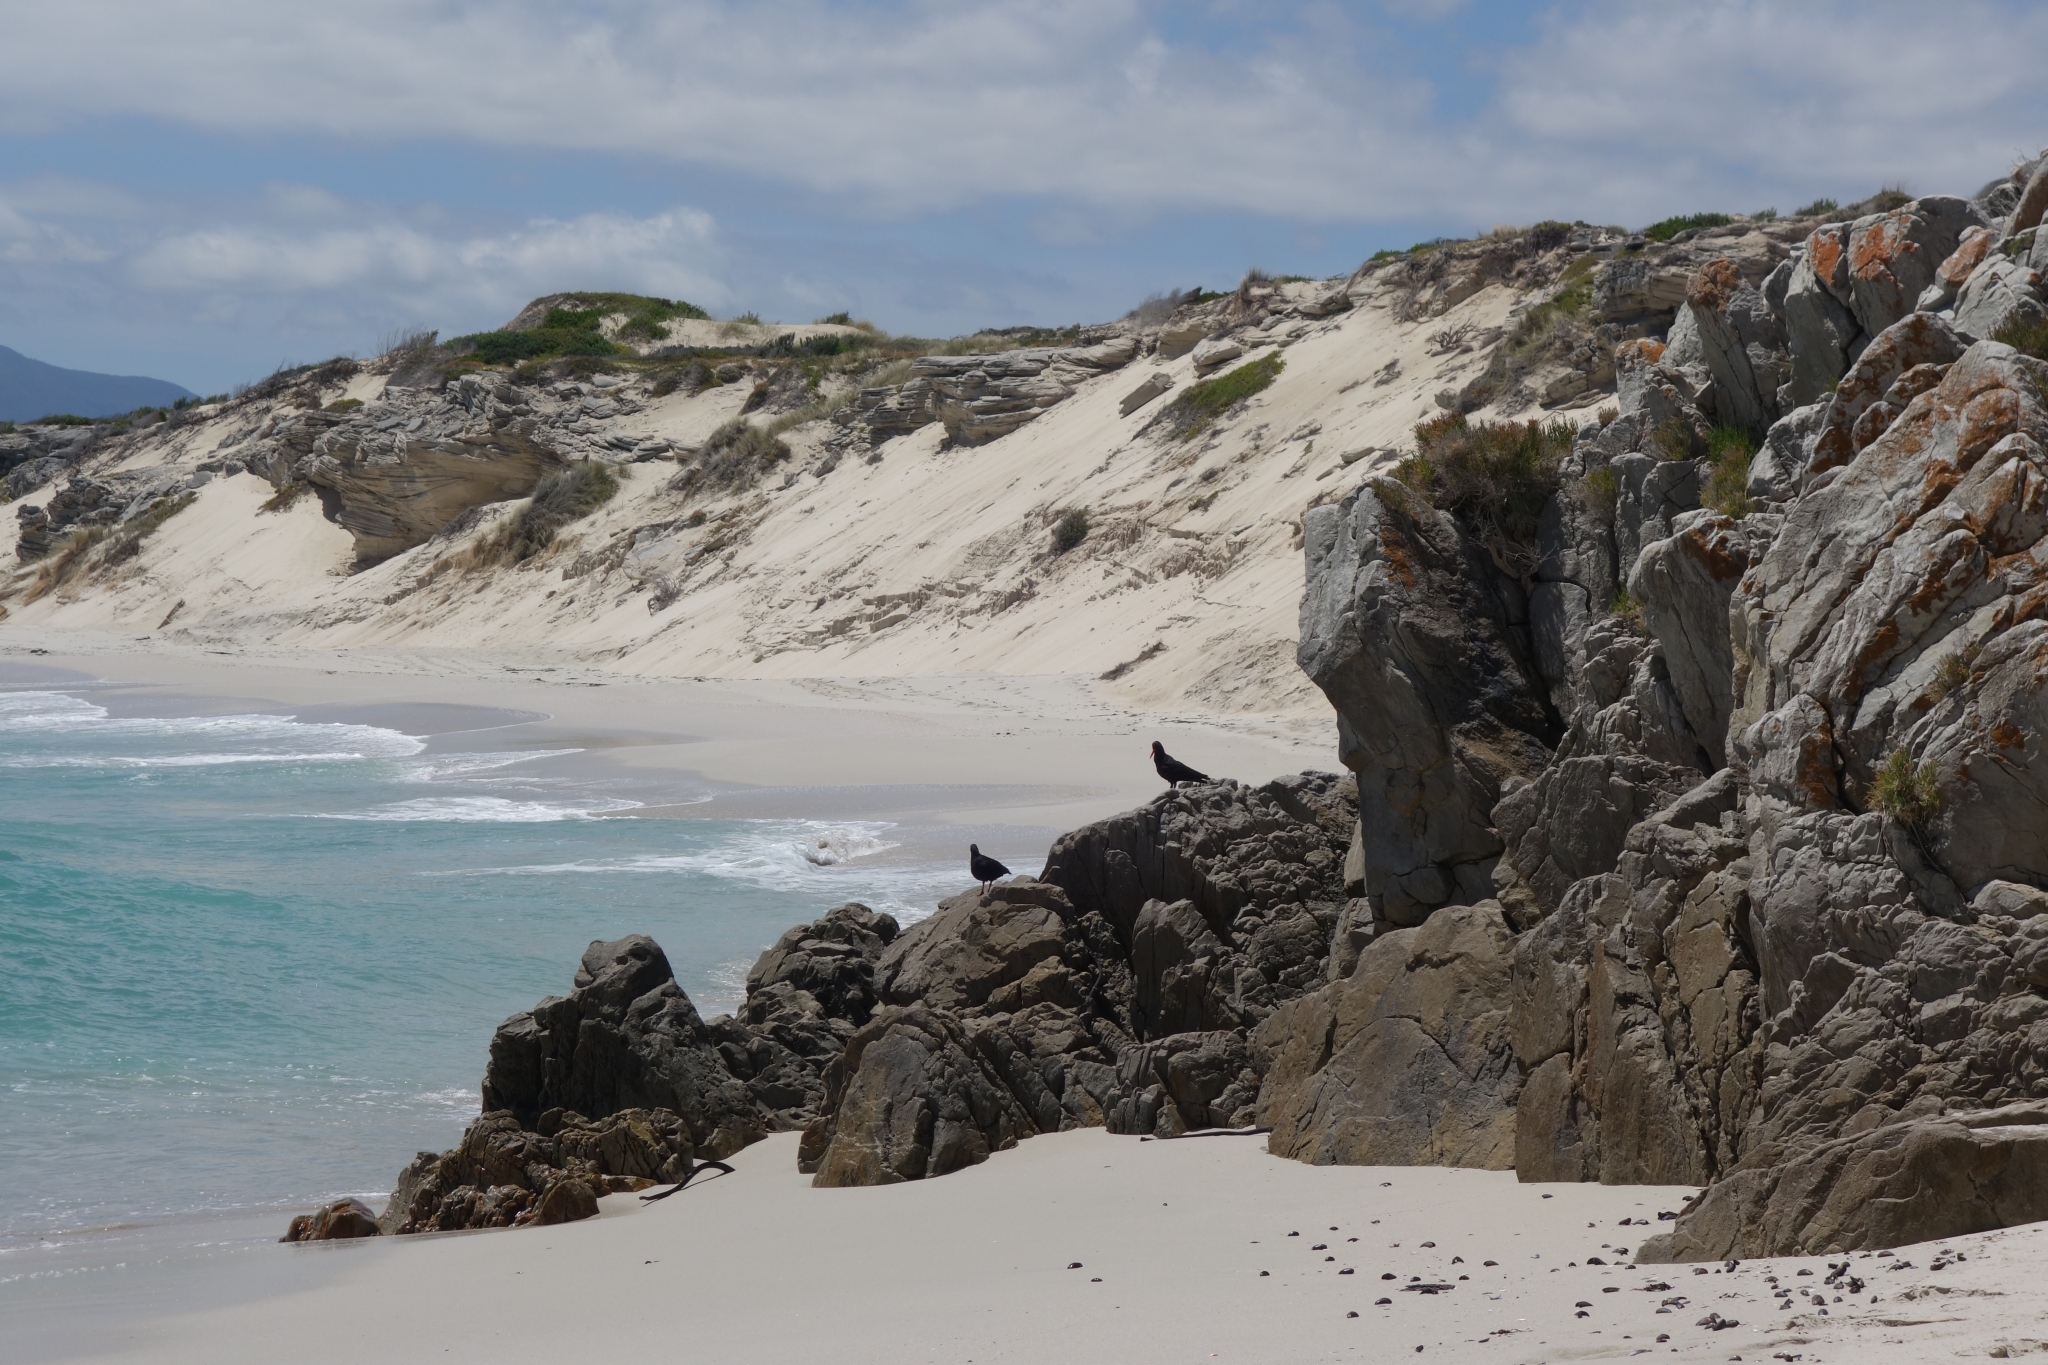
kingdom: Animalia
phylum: Chordata
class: Aves
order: Charadriiformes
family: Haematopodidae
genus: Haematopus
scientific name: Haematopus moquini
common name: African oystercatcher
